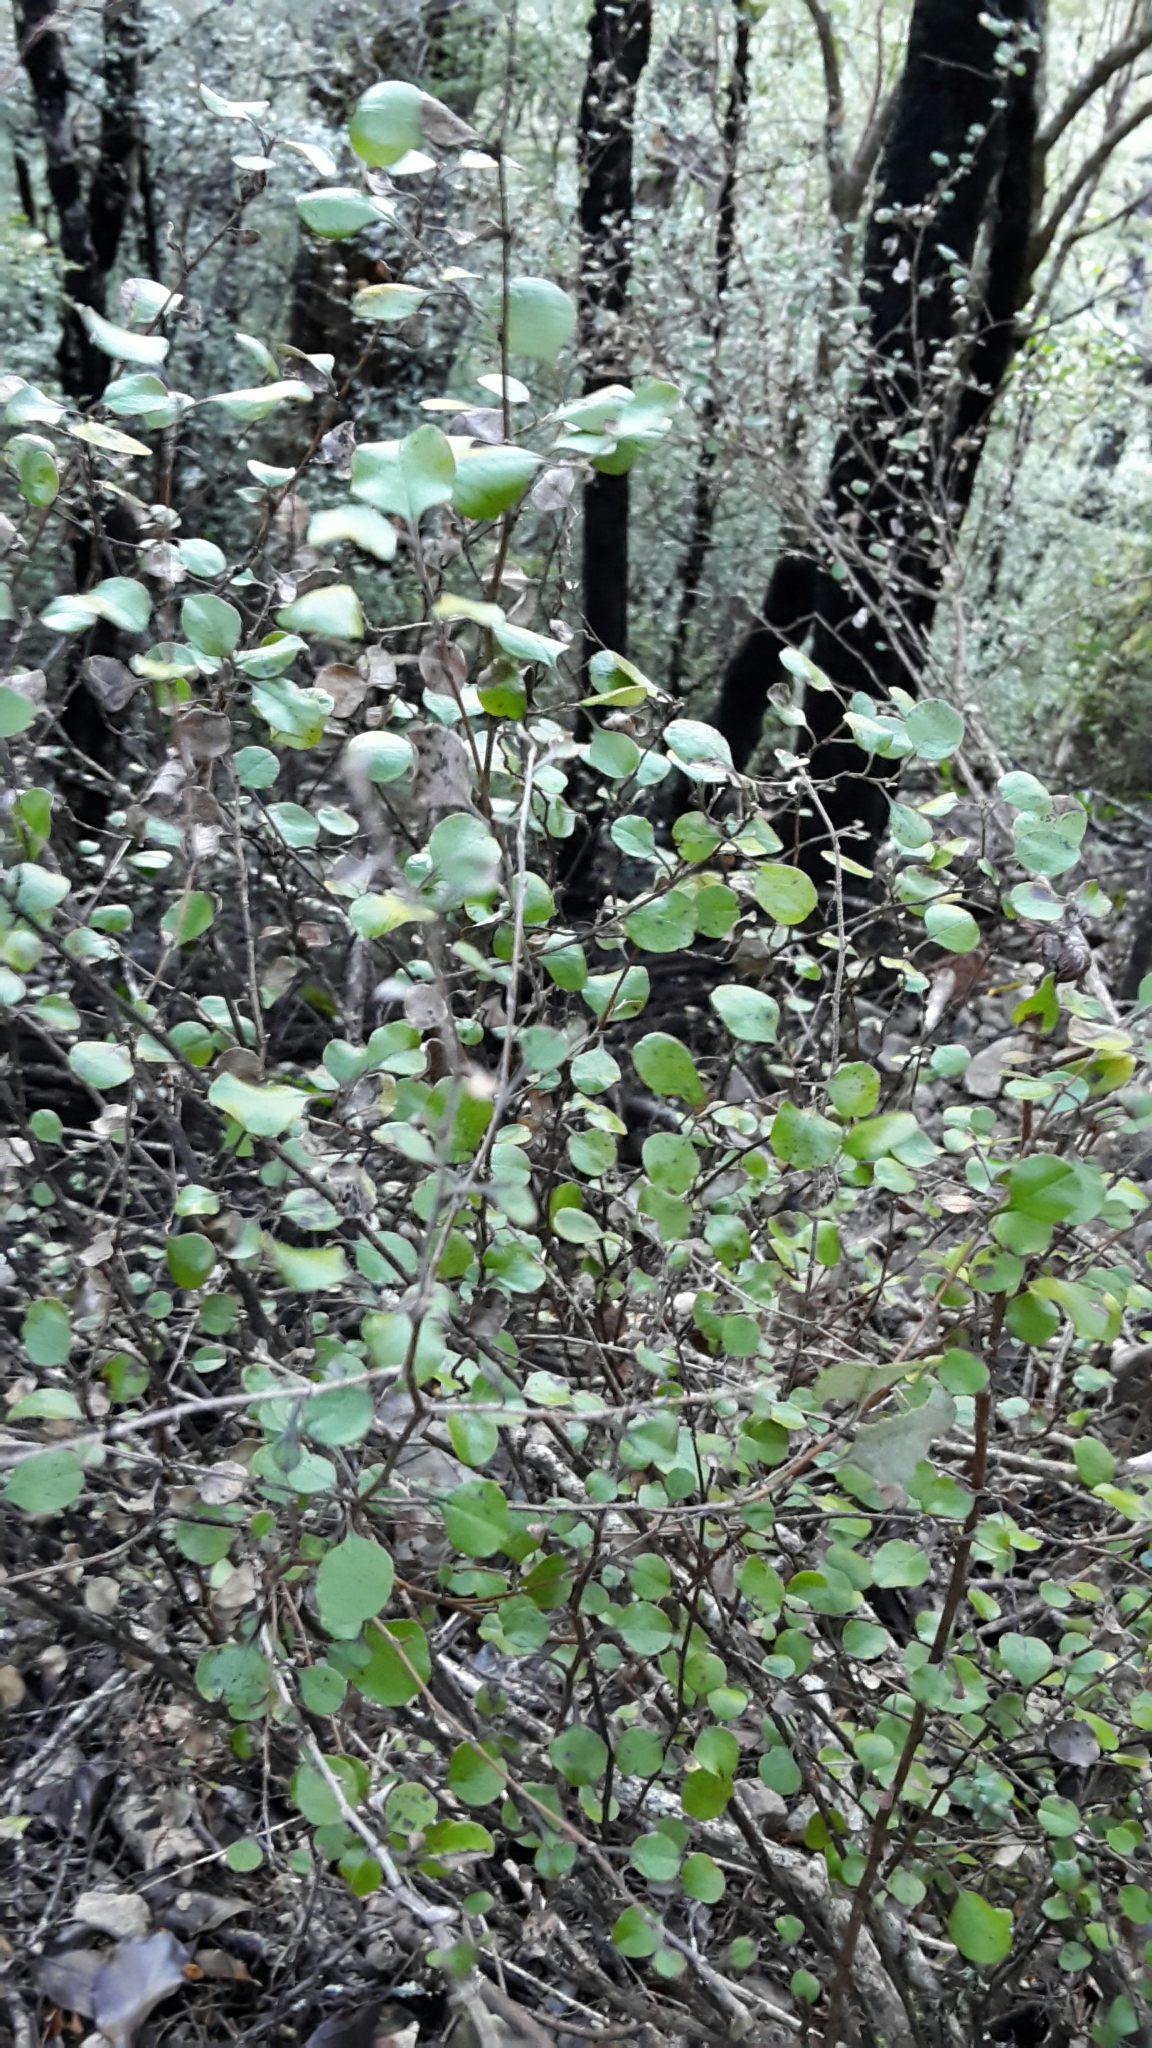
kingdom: Plantae
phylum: Tracheophyta
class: Magnoliopsida
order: Asterales
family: Asteraceae
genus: Ozothamnus
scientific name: Ozothamnus glomeratus
